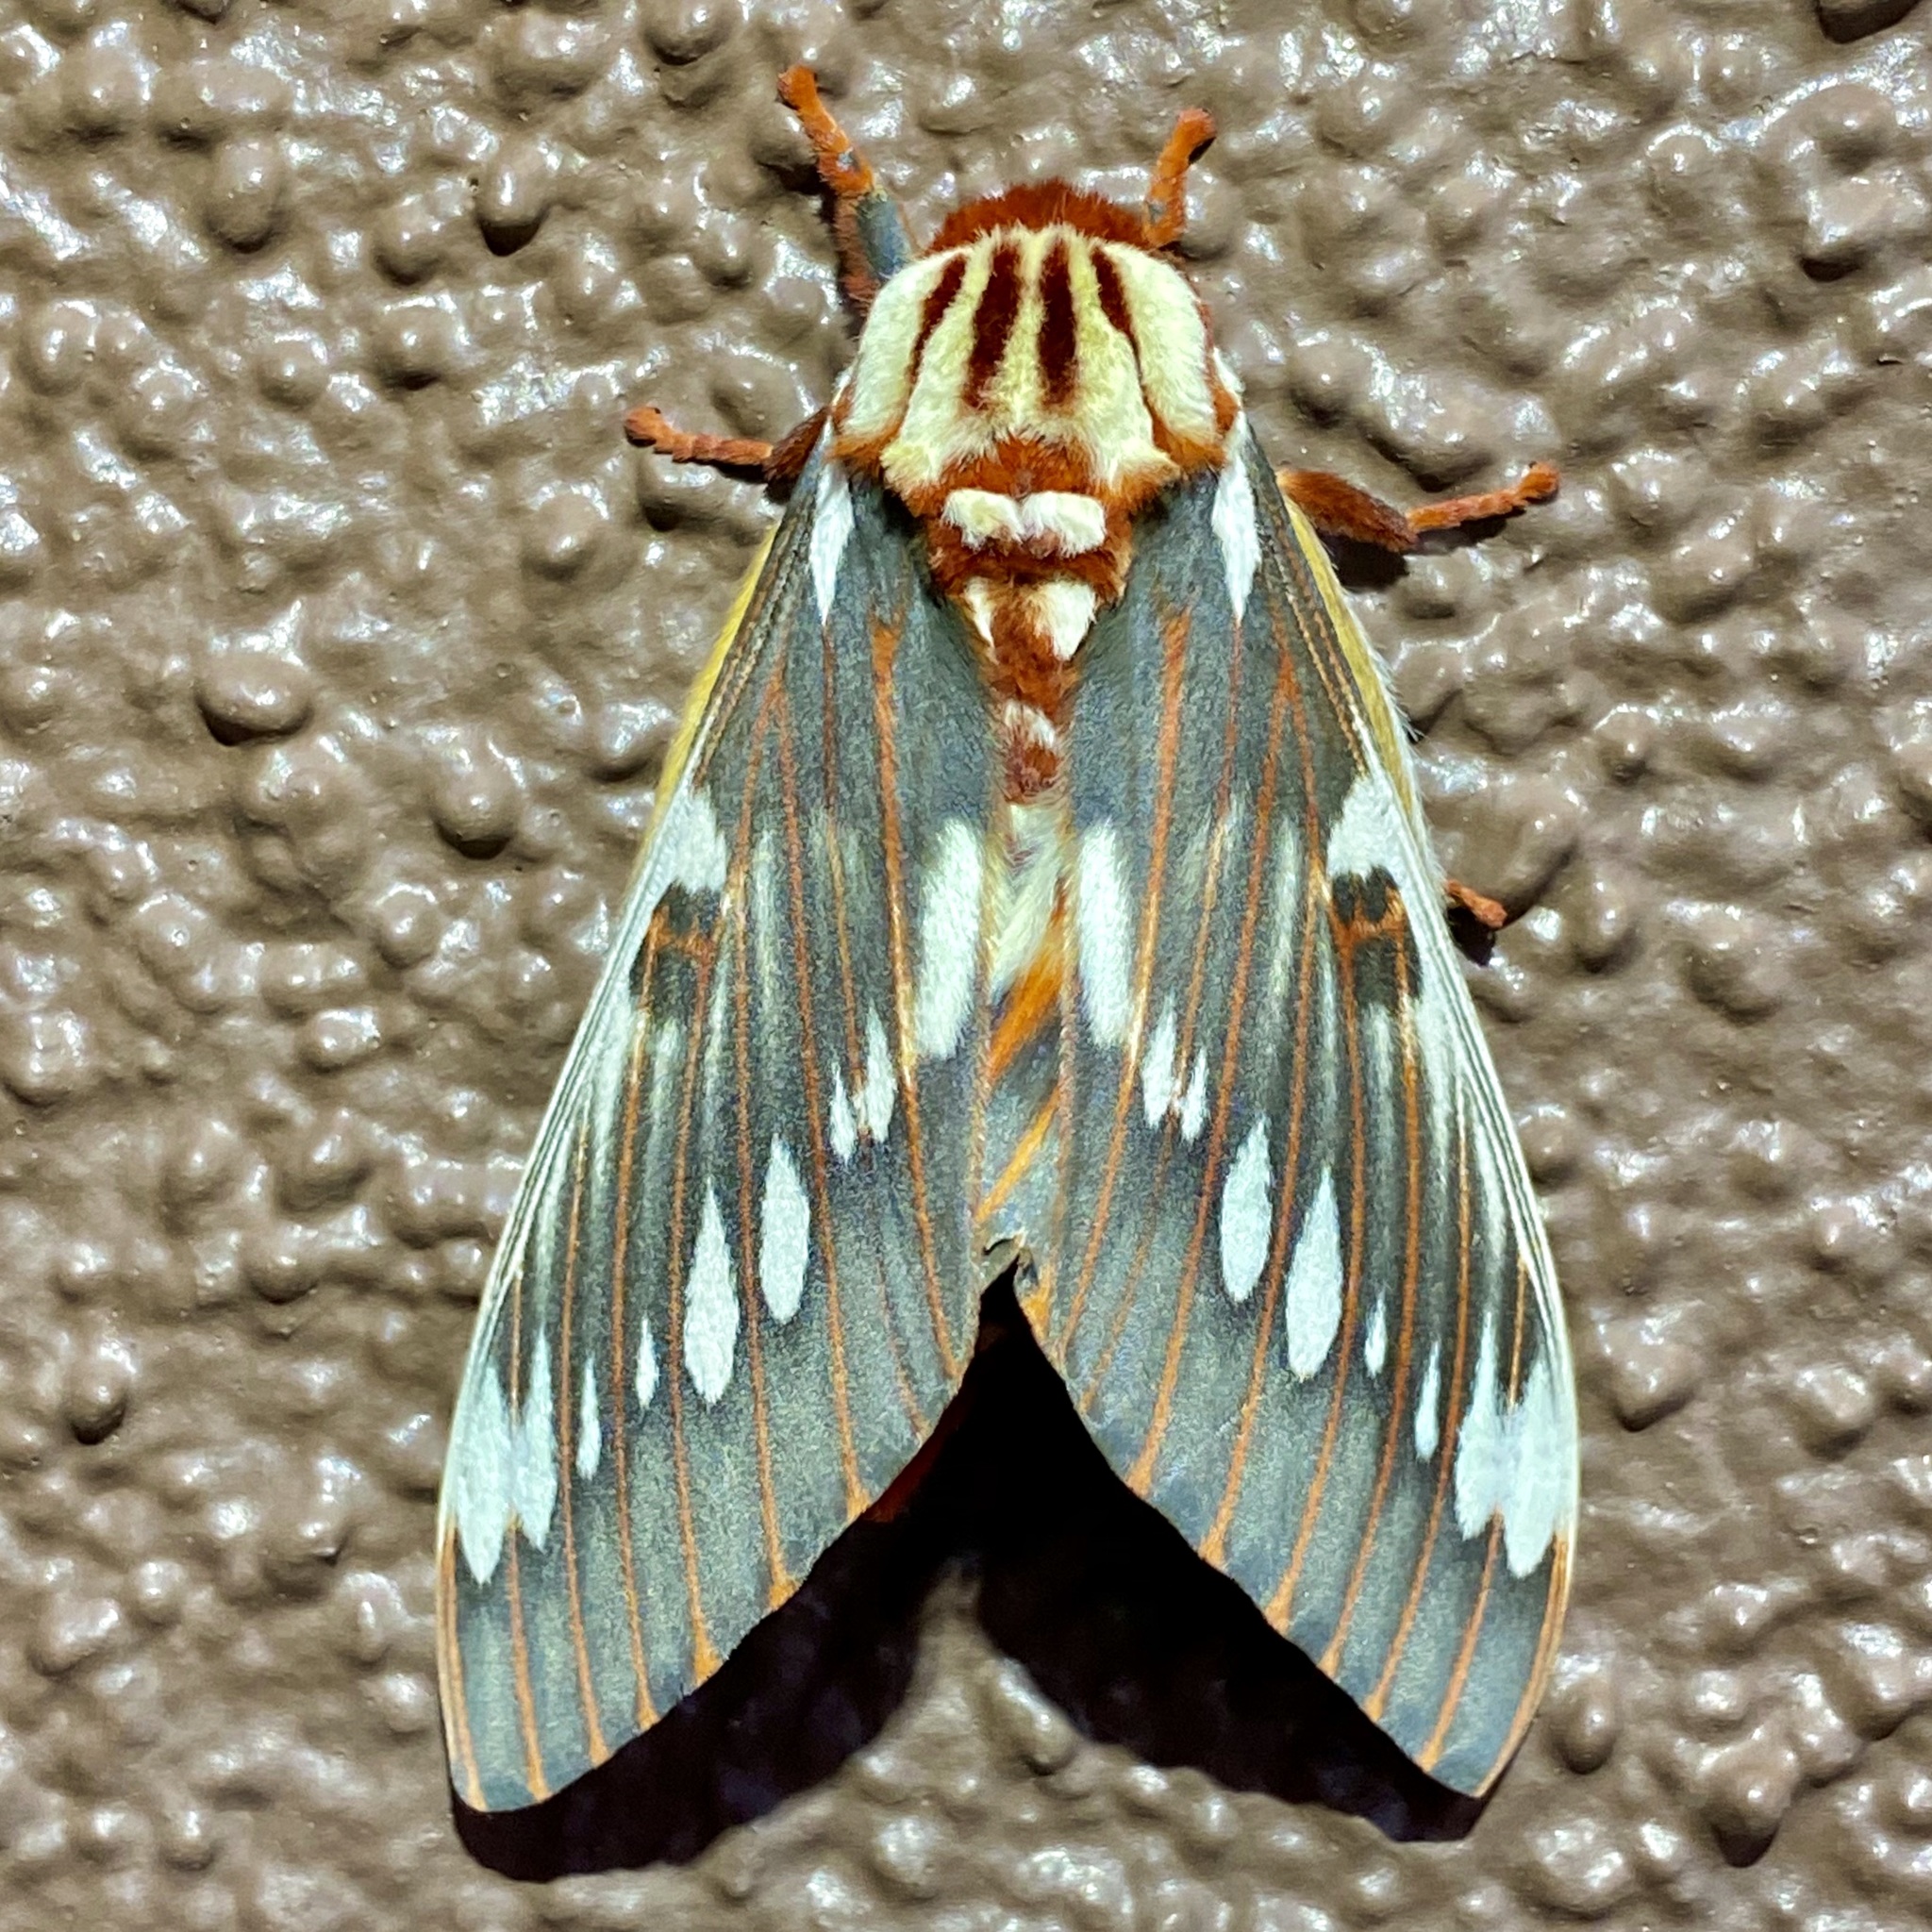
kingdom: Animalia
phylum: Arthropoda
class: Insecta
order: Lepidoptera
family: Saturniidae
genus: Citheronia
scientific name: Citheronia splendens
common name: Splendid royal moth
